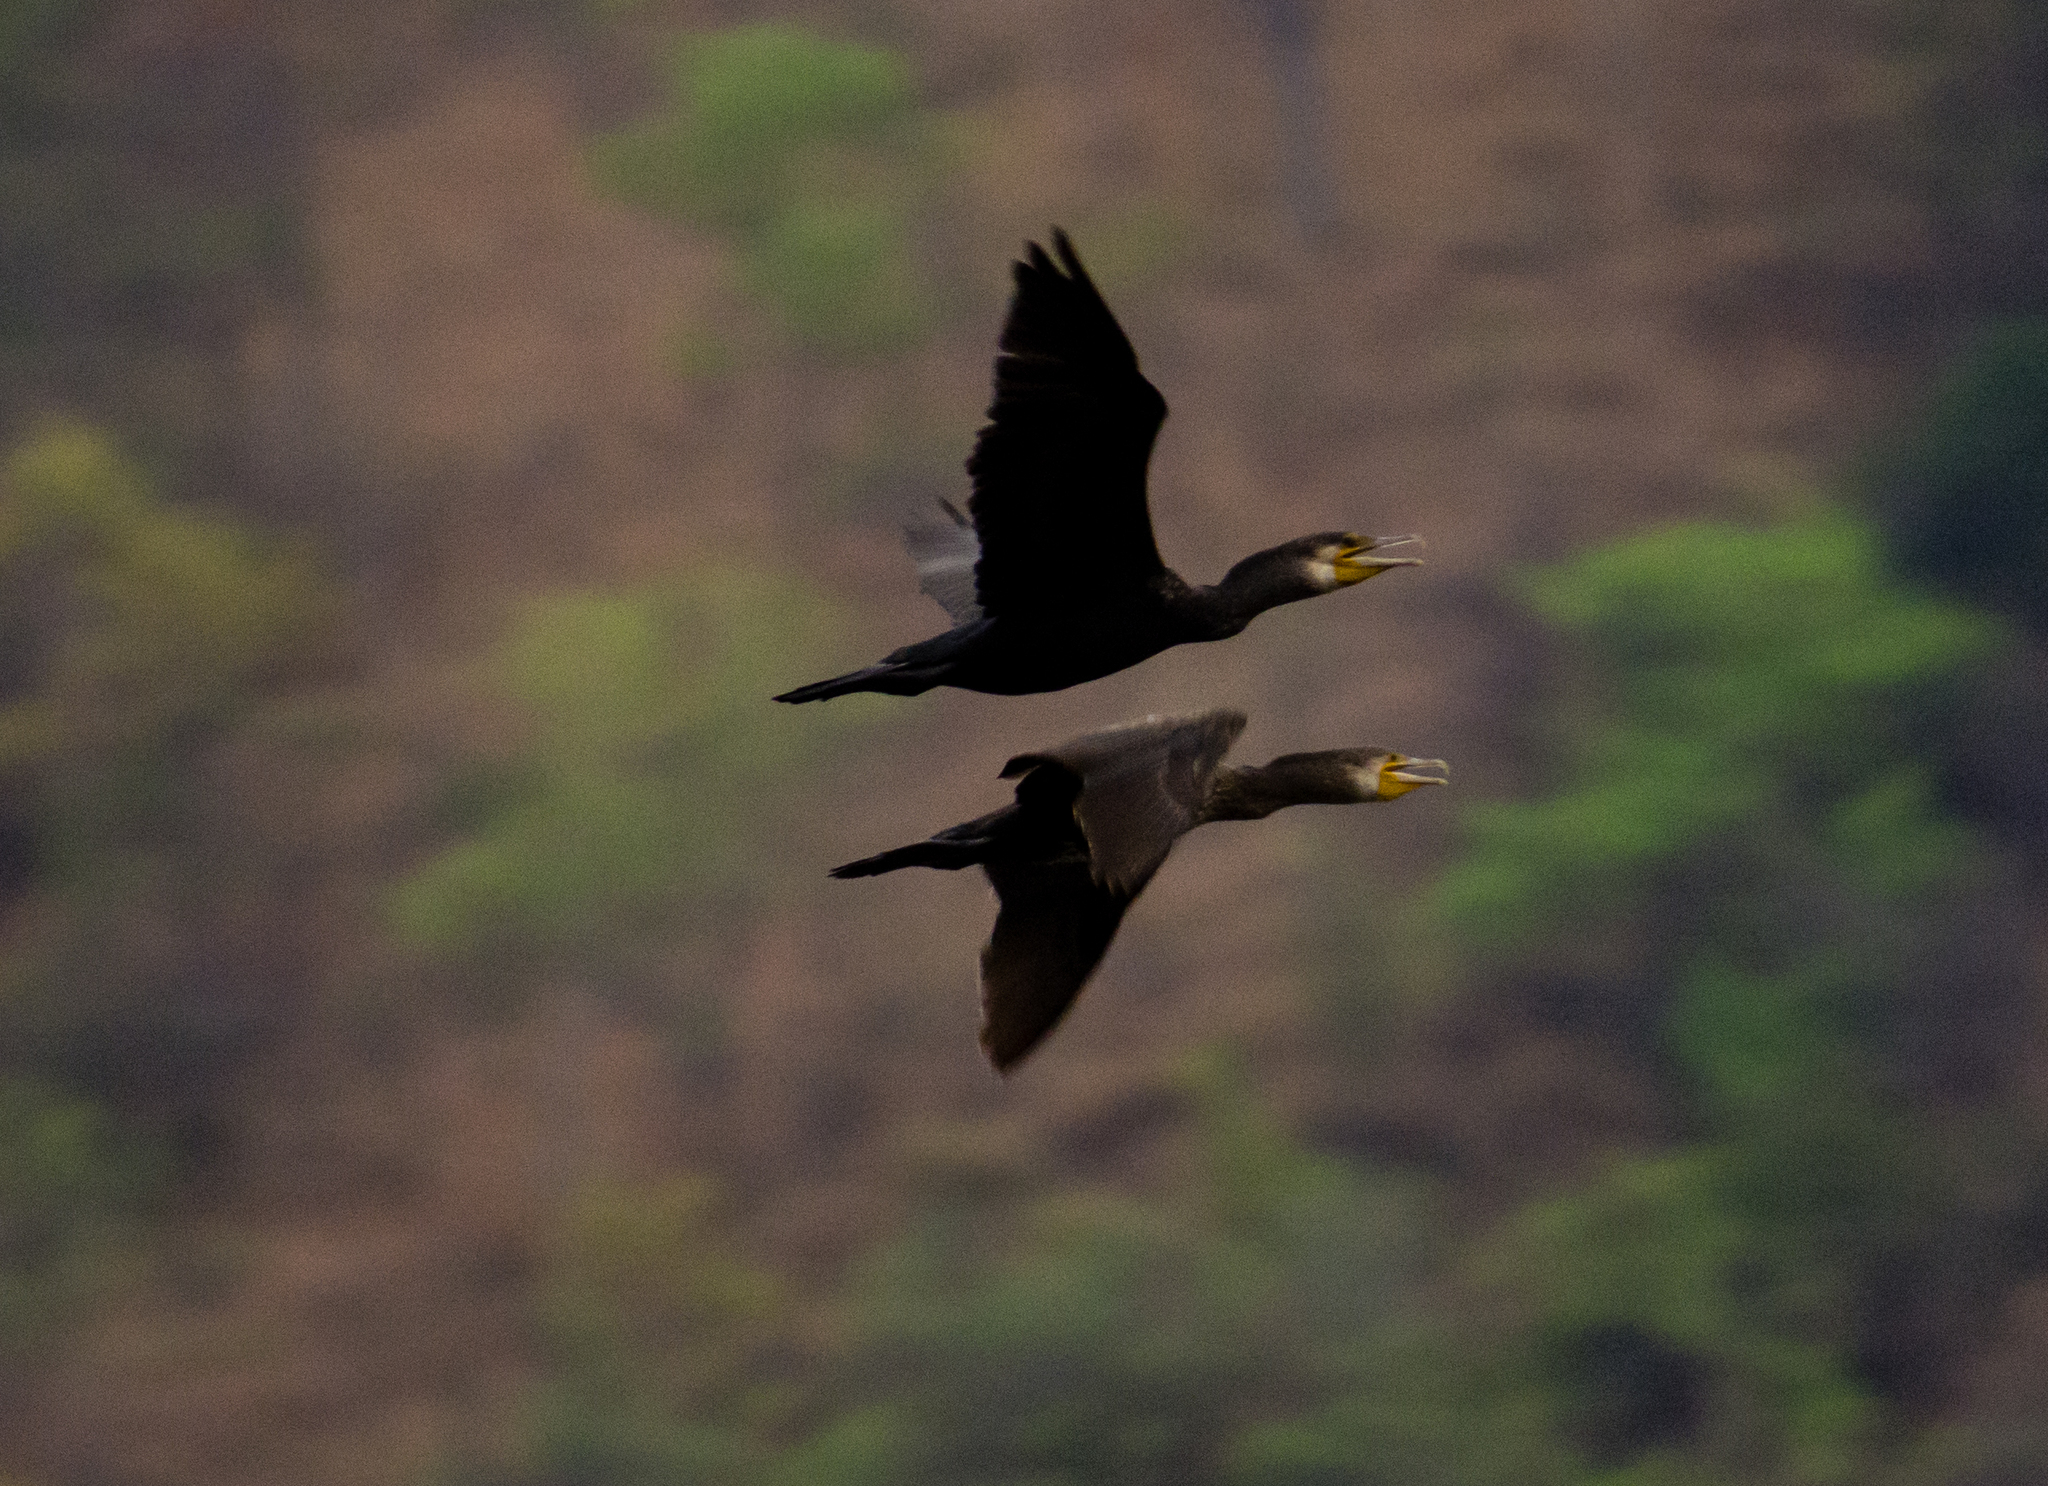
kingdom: Animalia
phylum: Chordata
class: Aves
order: Suliformes
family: Phalacrocoracidae
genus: Phalacrocorax
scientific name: Phalacrocorax carbo
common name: Great cormorant
